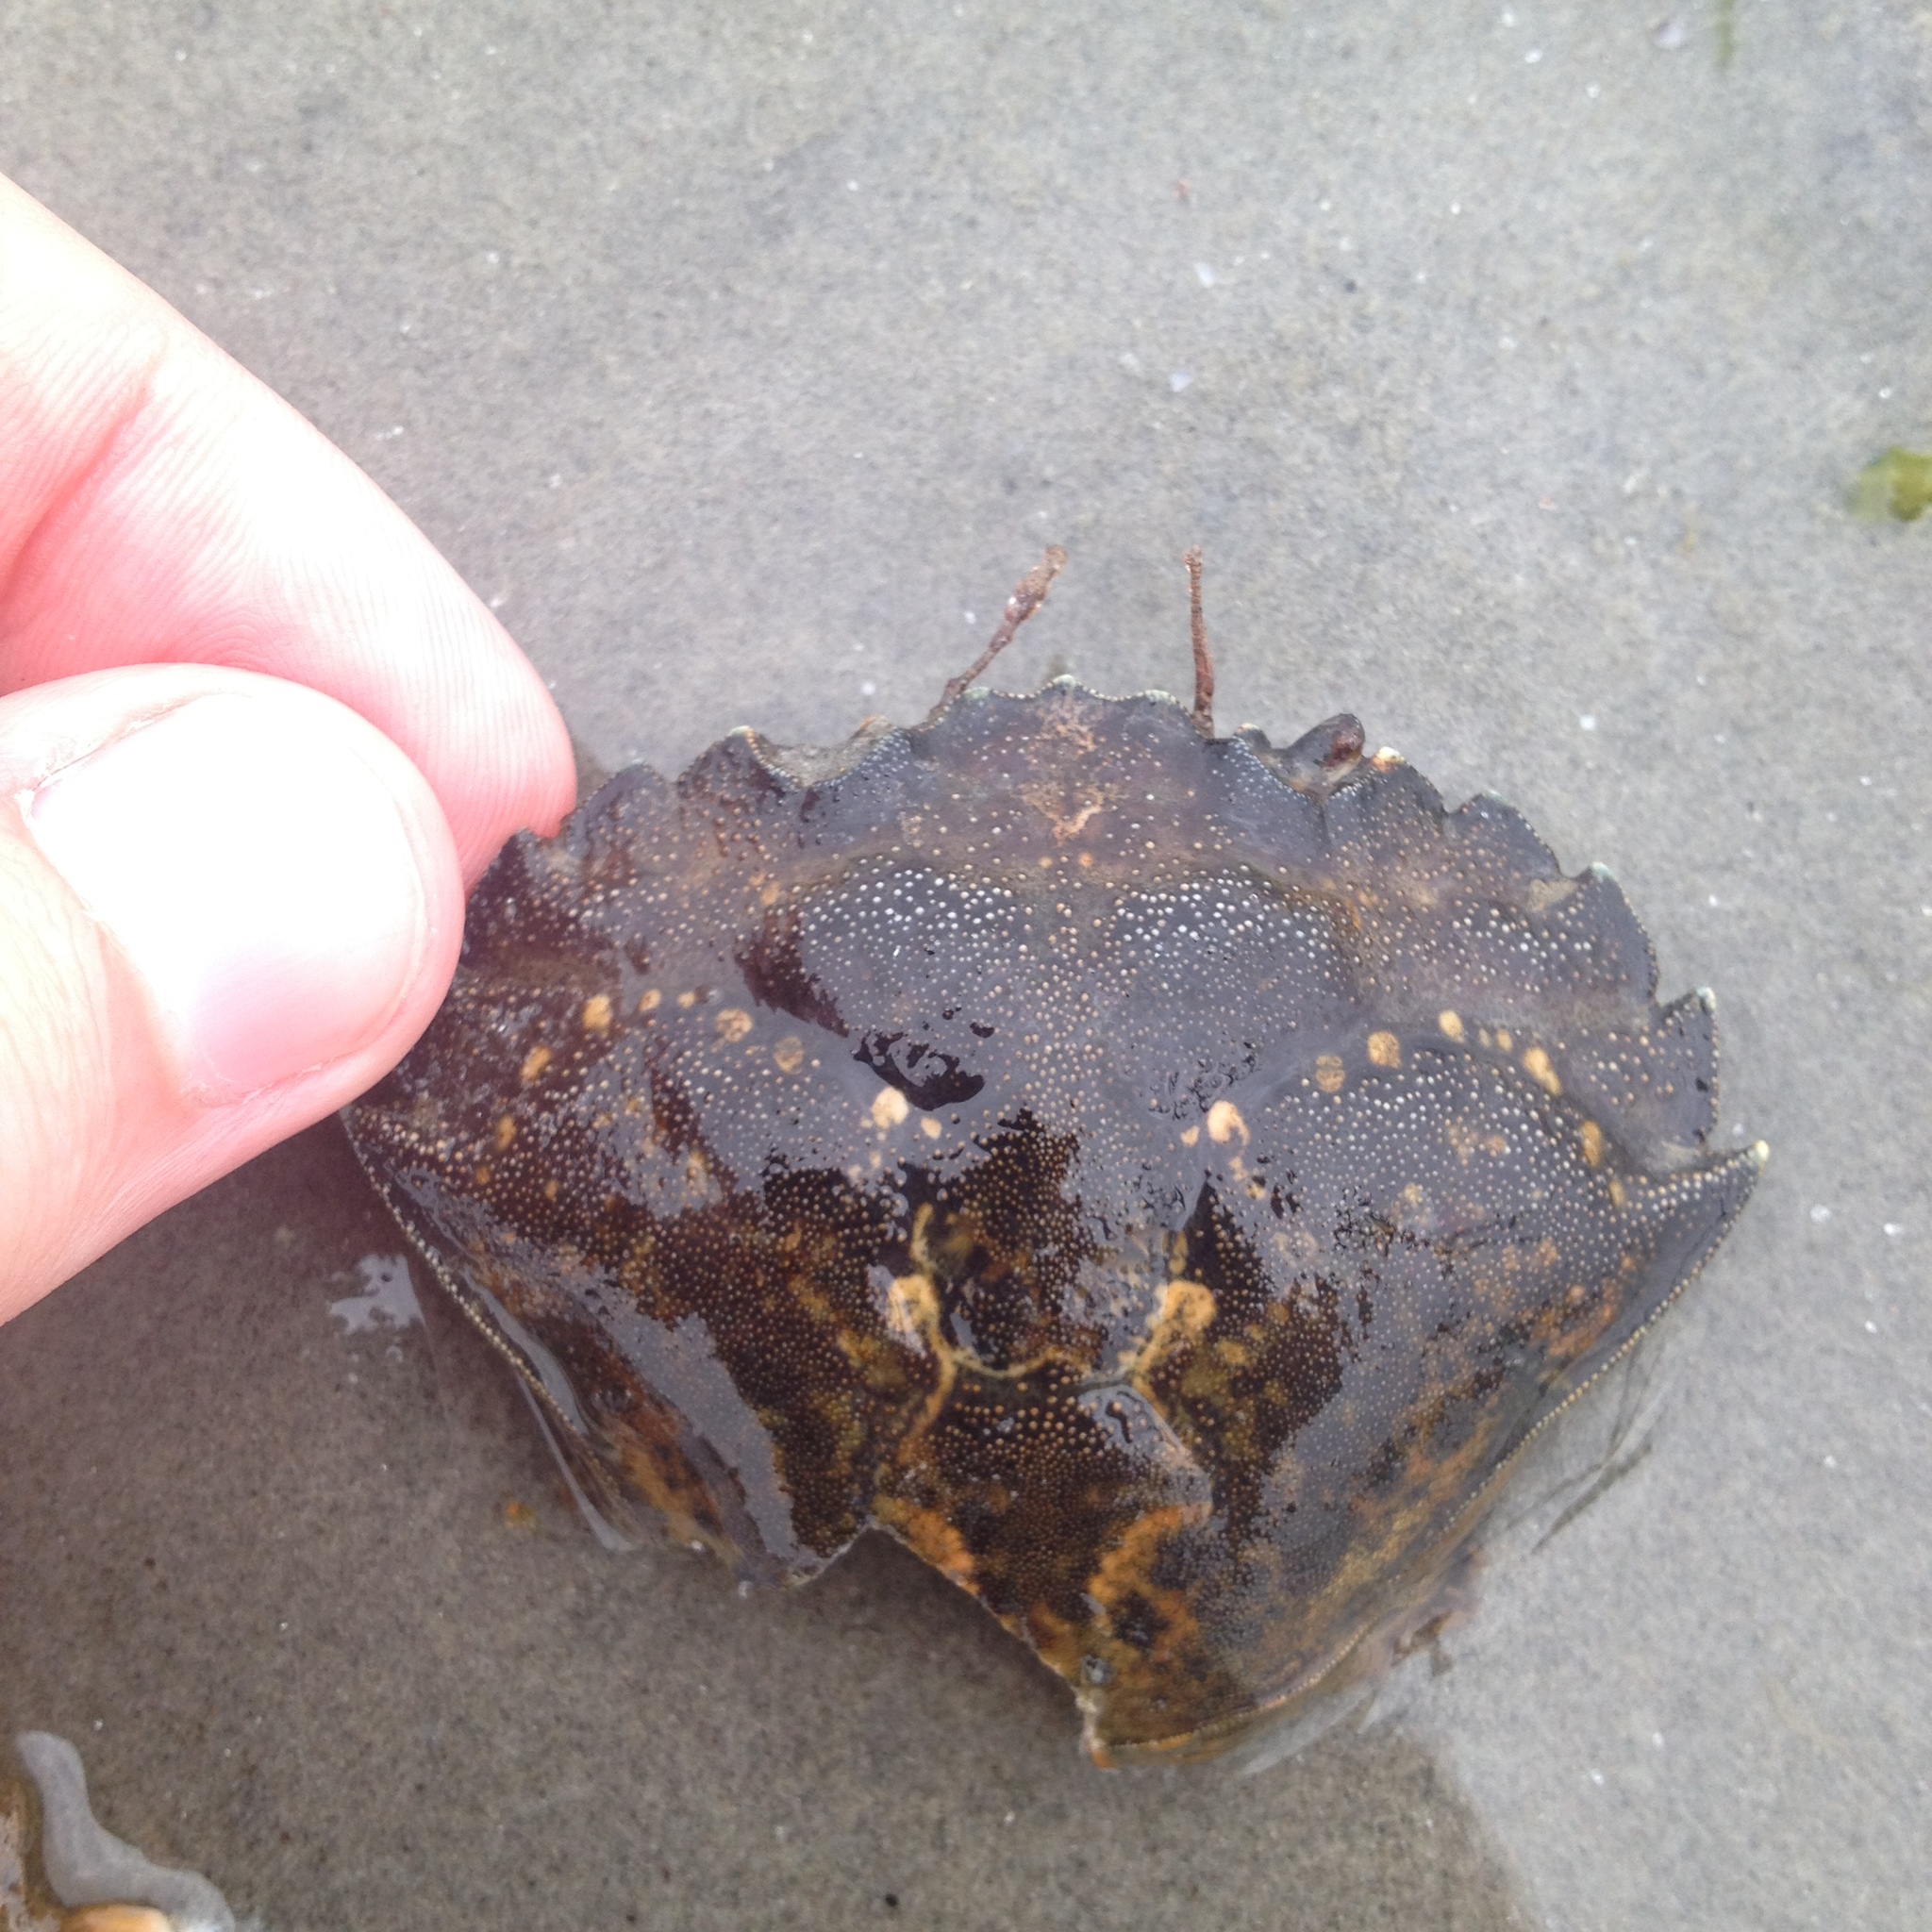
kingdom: Animalia
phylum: Arthropoda
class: Malacostraca
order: Decapoda
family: Carcinidae
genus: Carcinus
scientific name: Carcinus maenas
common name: European green crab
